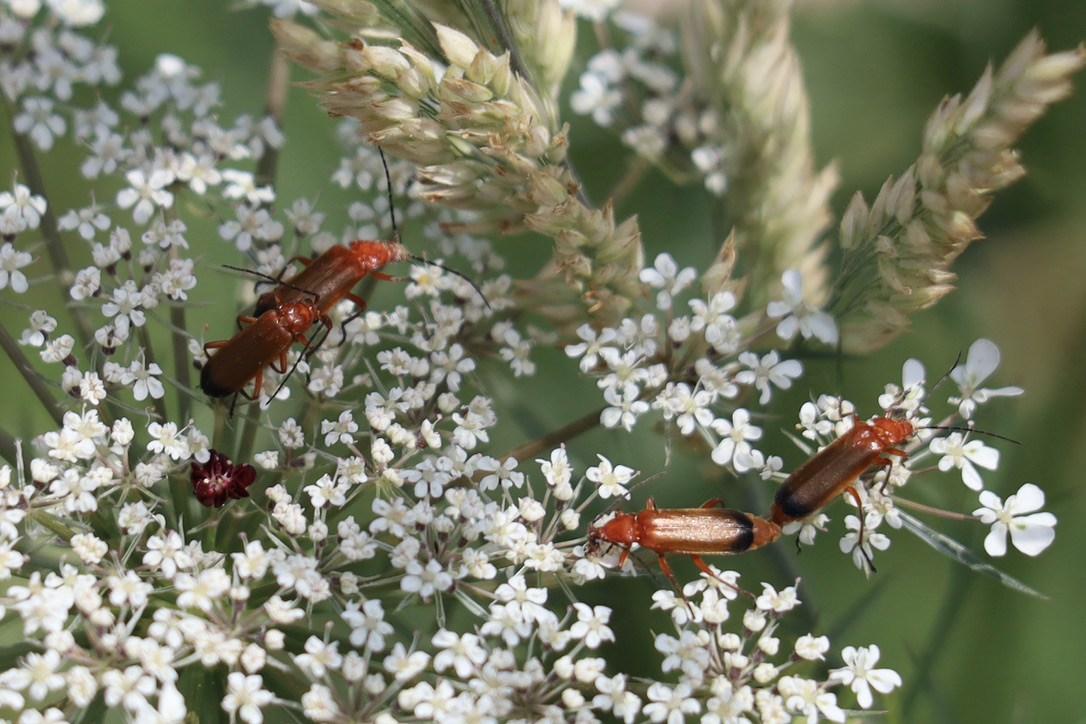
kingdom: Animalia
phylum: Arthropoda
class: Insecta
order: Coleoptera
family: Cantharidae
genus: Rhagonycha
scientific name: Rhagonycha fulva
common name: Common red soldier beetle
